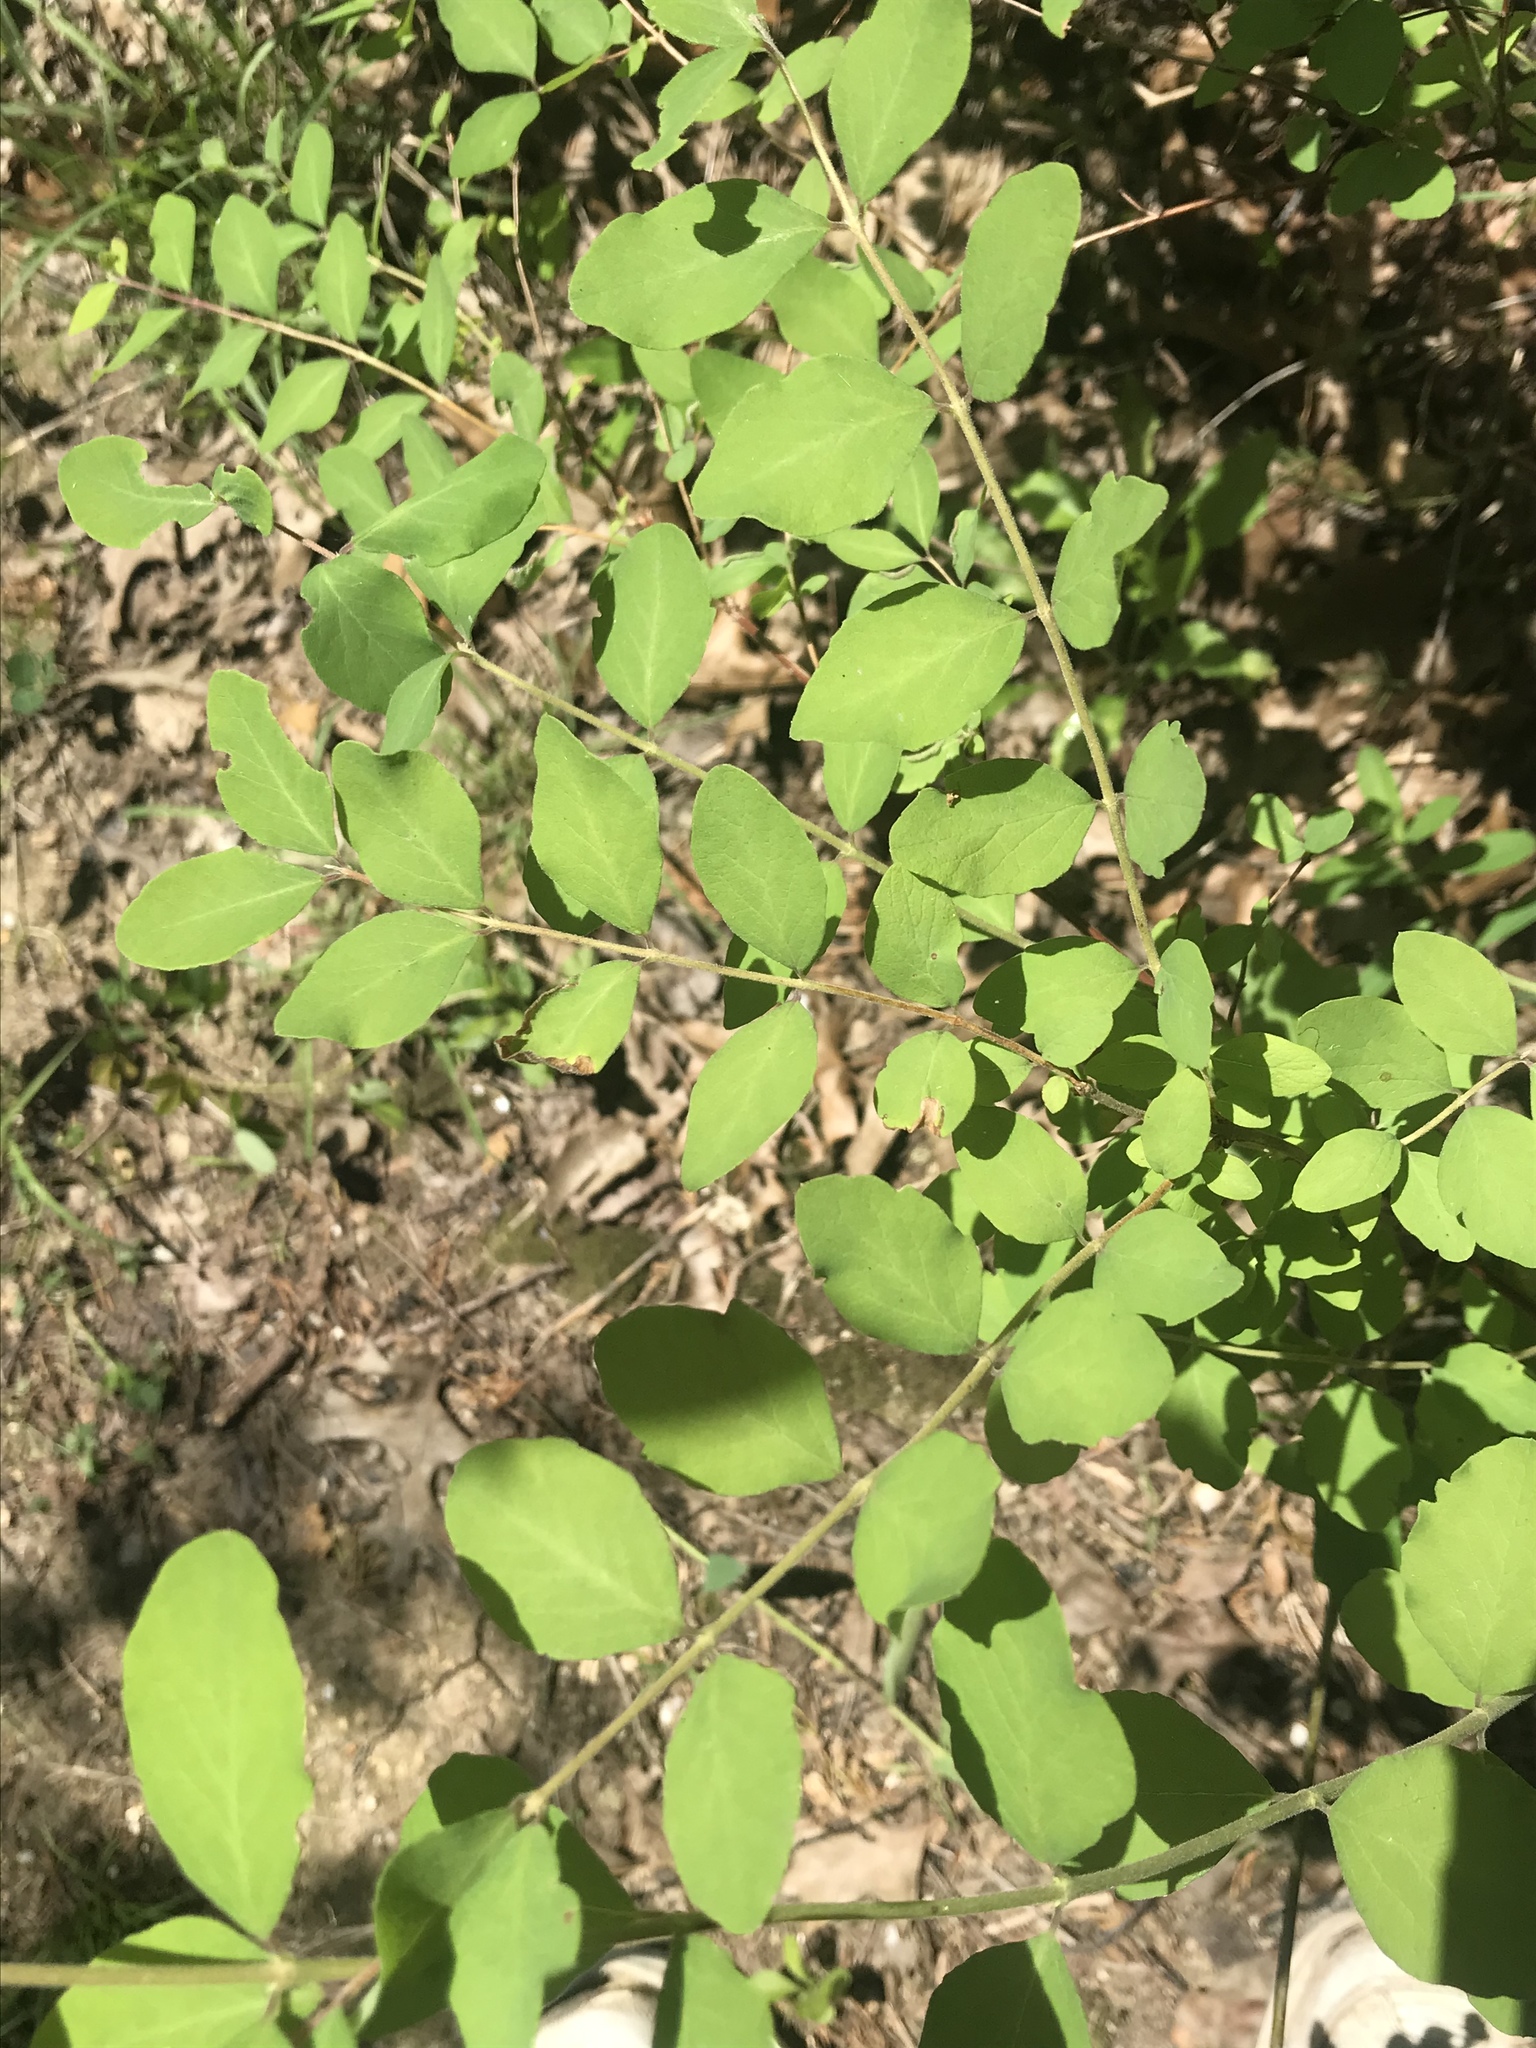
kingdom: Plantae
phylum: Tracheophyta
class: Magnoliopsida
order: Dipsacales
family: Caprifoliaceae
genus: Symphoricarpos
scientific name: Symphoricarpos orbiculatus
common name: Coralberry
